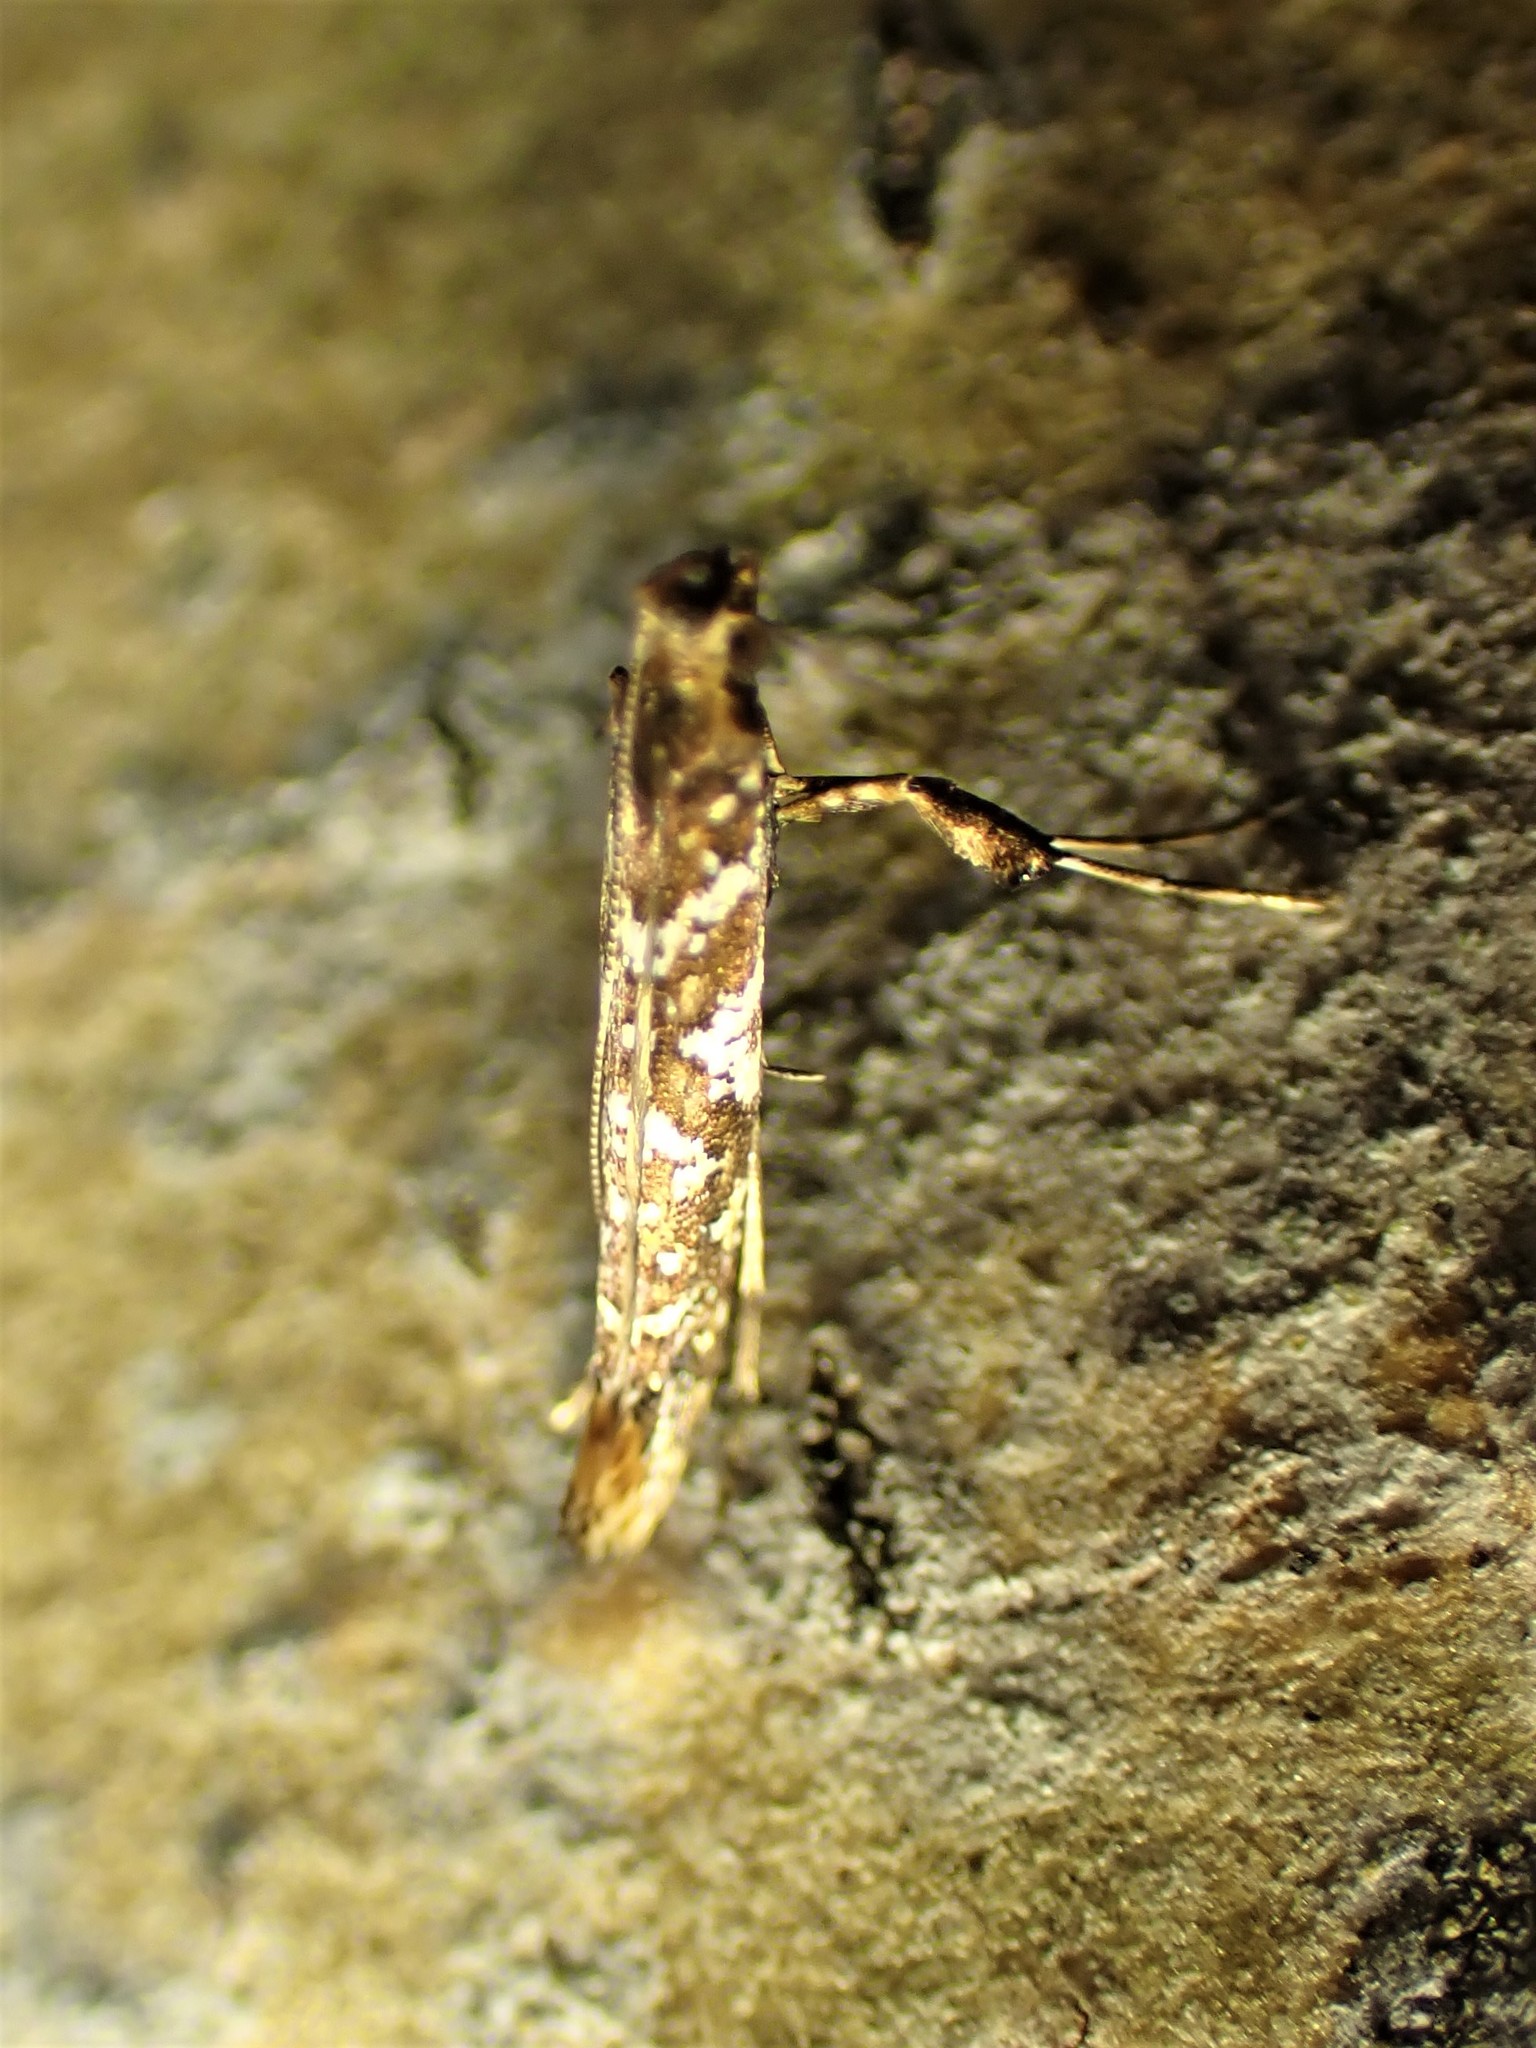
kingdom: Animalia
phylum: Arthropoda
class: Insecta
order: Lepidoptera
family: Gracillariidae
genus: Caloptilia
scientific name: Caloptilia serotinella
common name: Cherry leafroller moth
